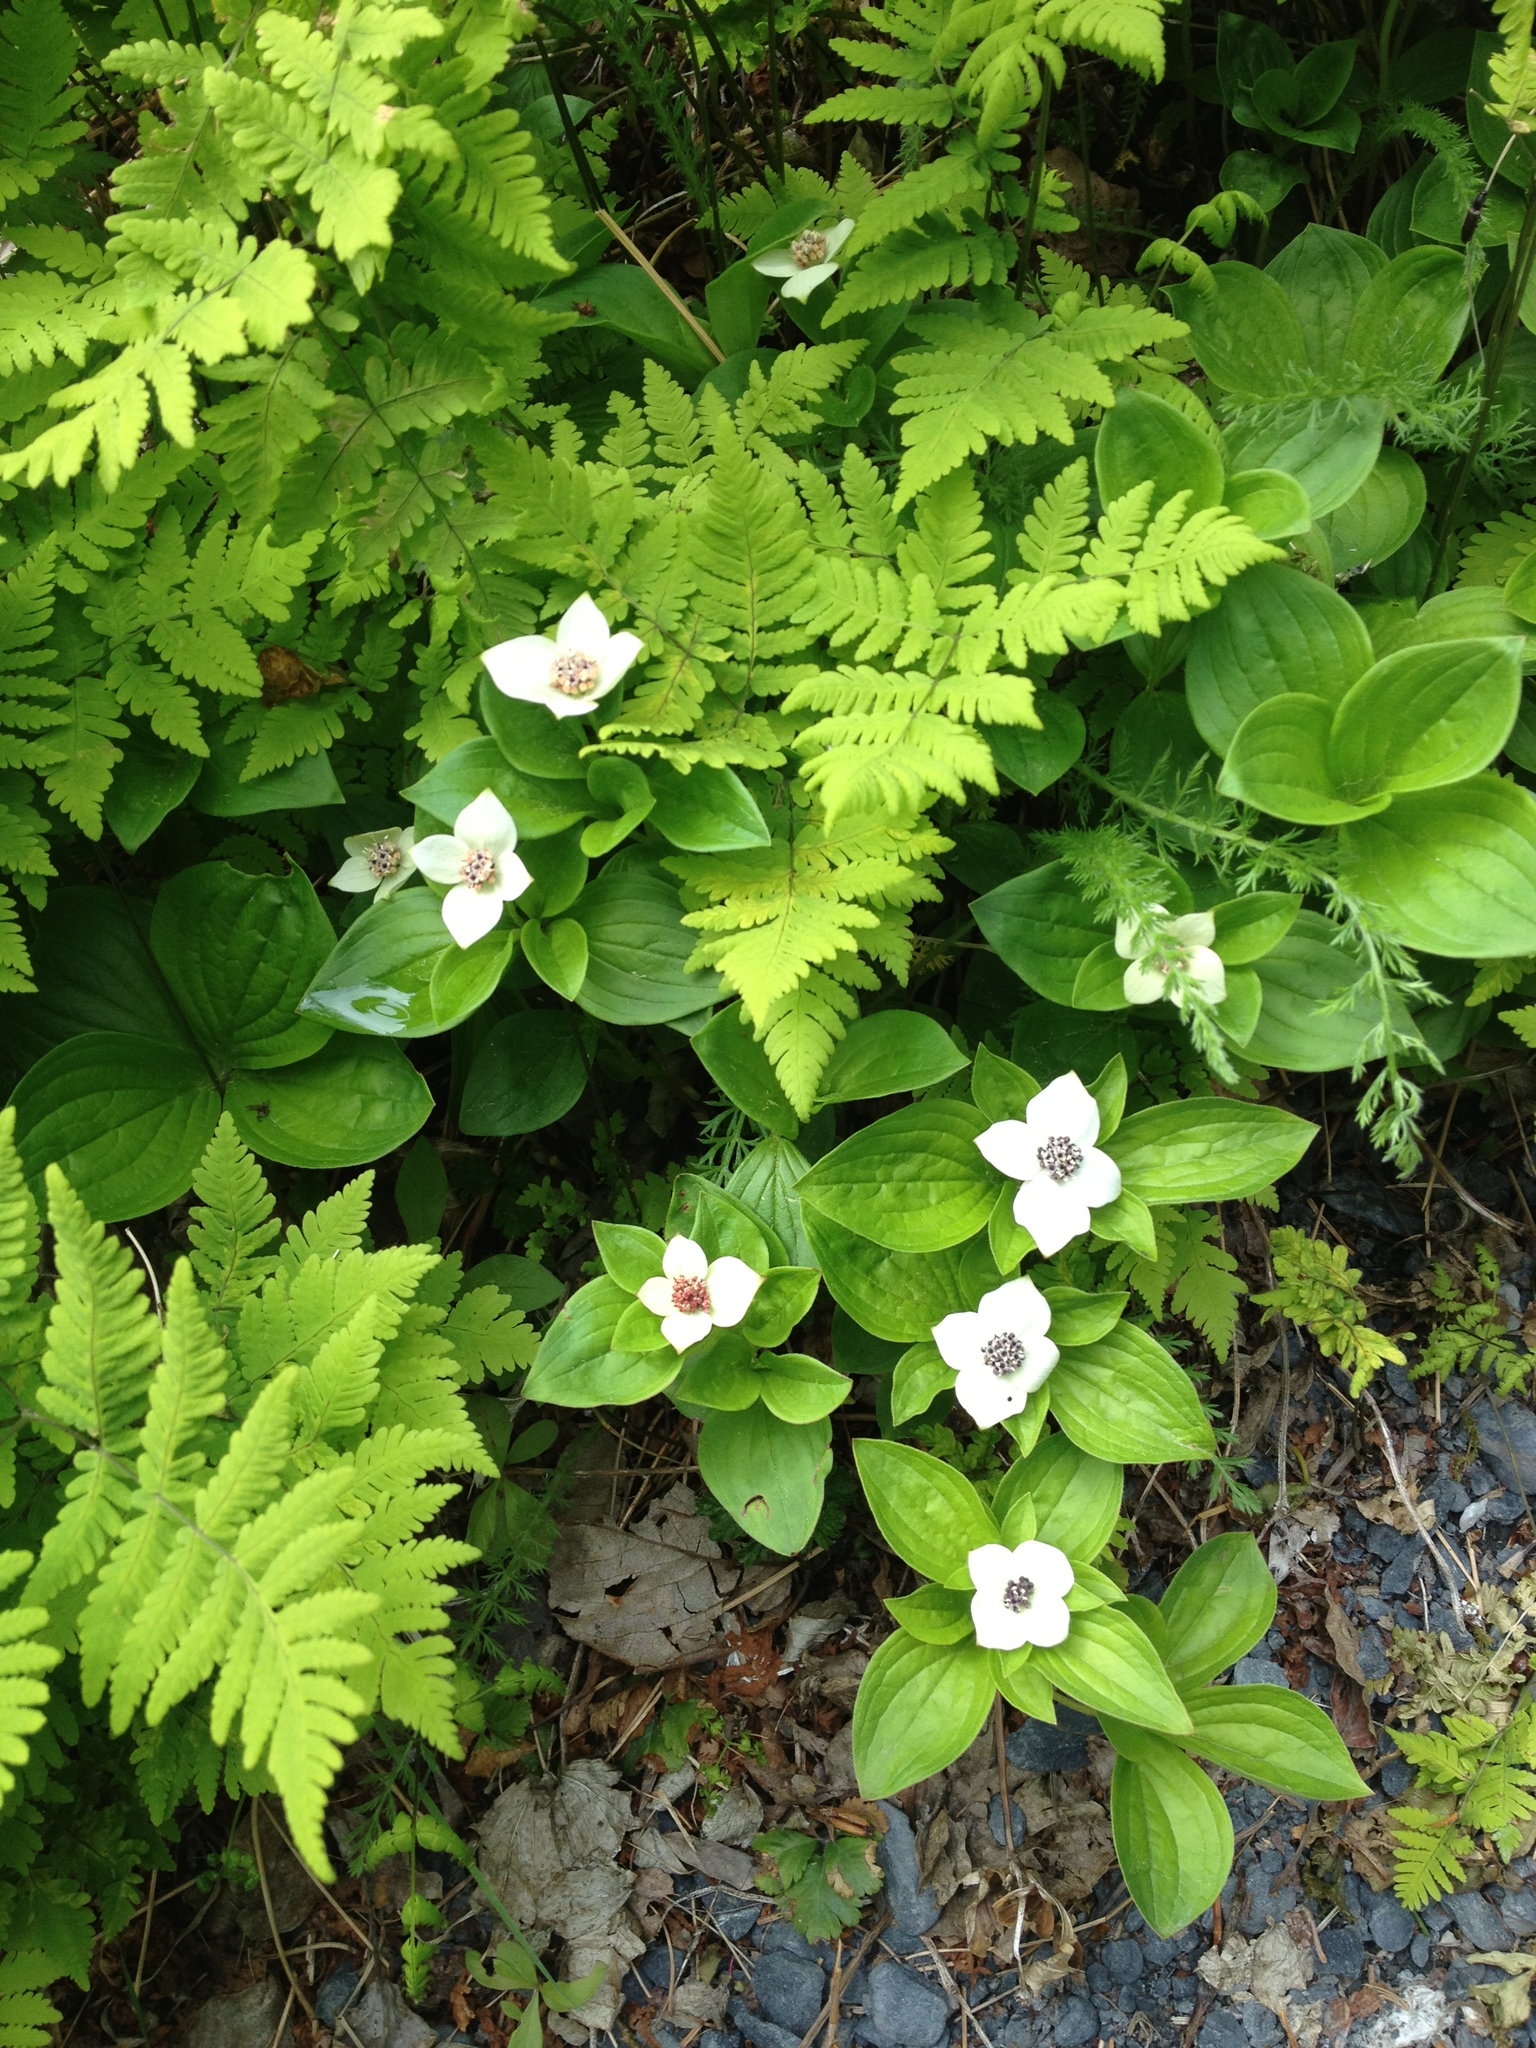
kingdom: Plantae
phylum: Tracheophyta
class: Magnoliopsida
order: Cornales
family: Cornaceae
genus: Cornus
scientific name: Cornus unalaschkensis
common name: Alaska bunchberry
